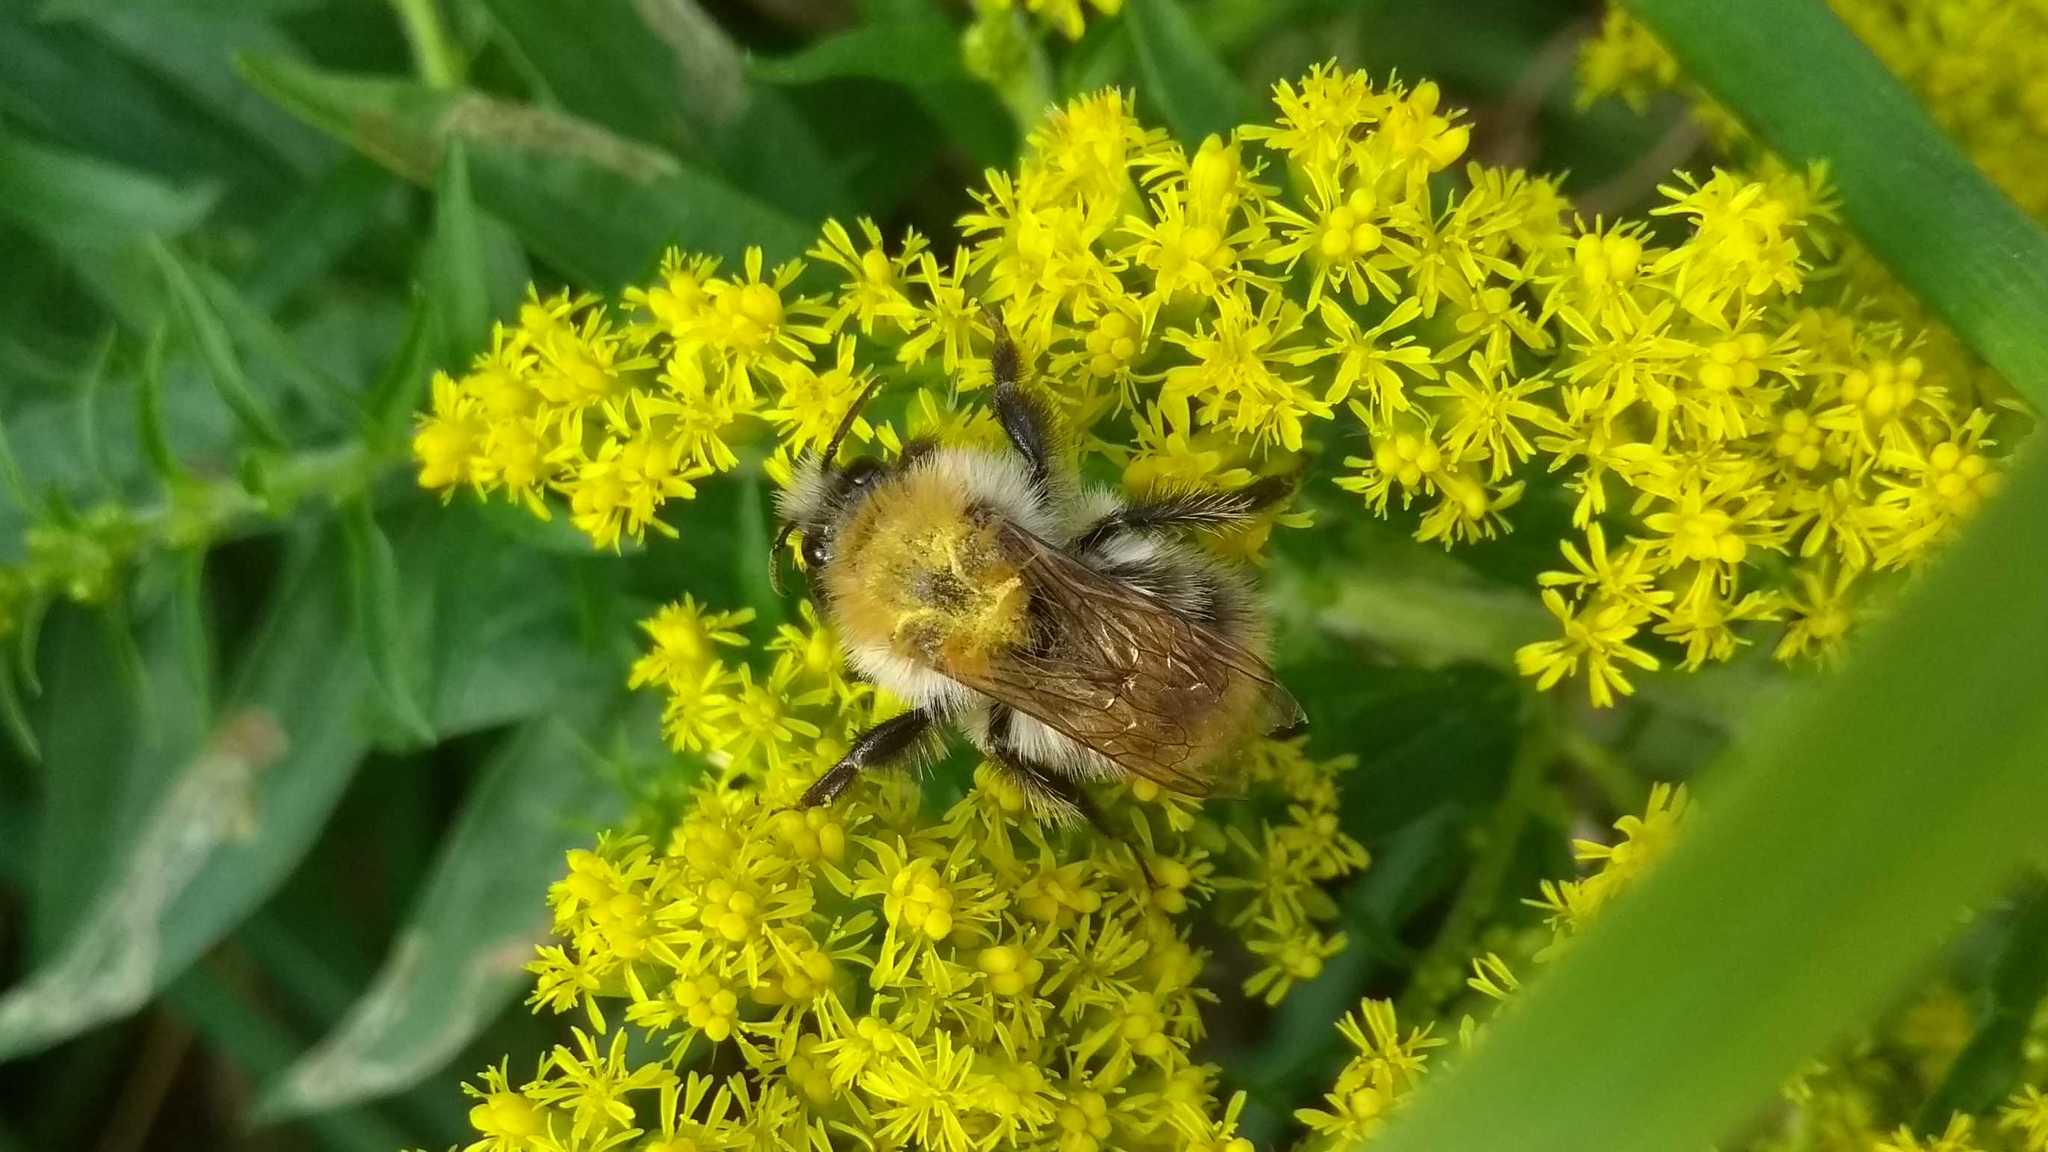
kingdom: Animalia
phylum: Arthropoda
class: Insecta
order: Hymenoptera
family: Apidae
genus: Bombus
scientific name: Bombus pascuorum
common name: Common carder bee
